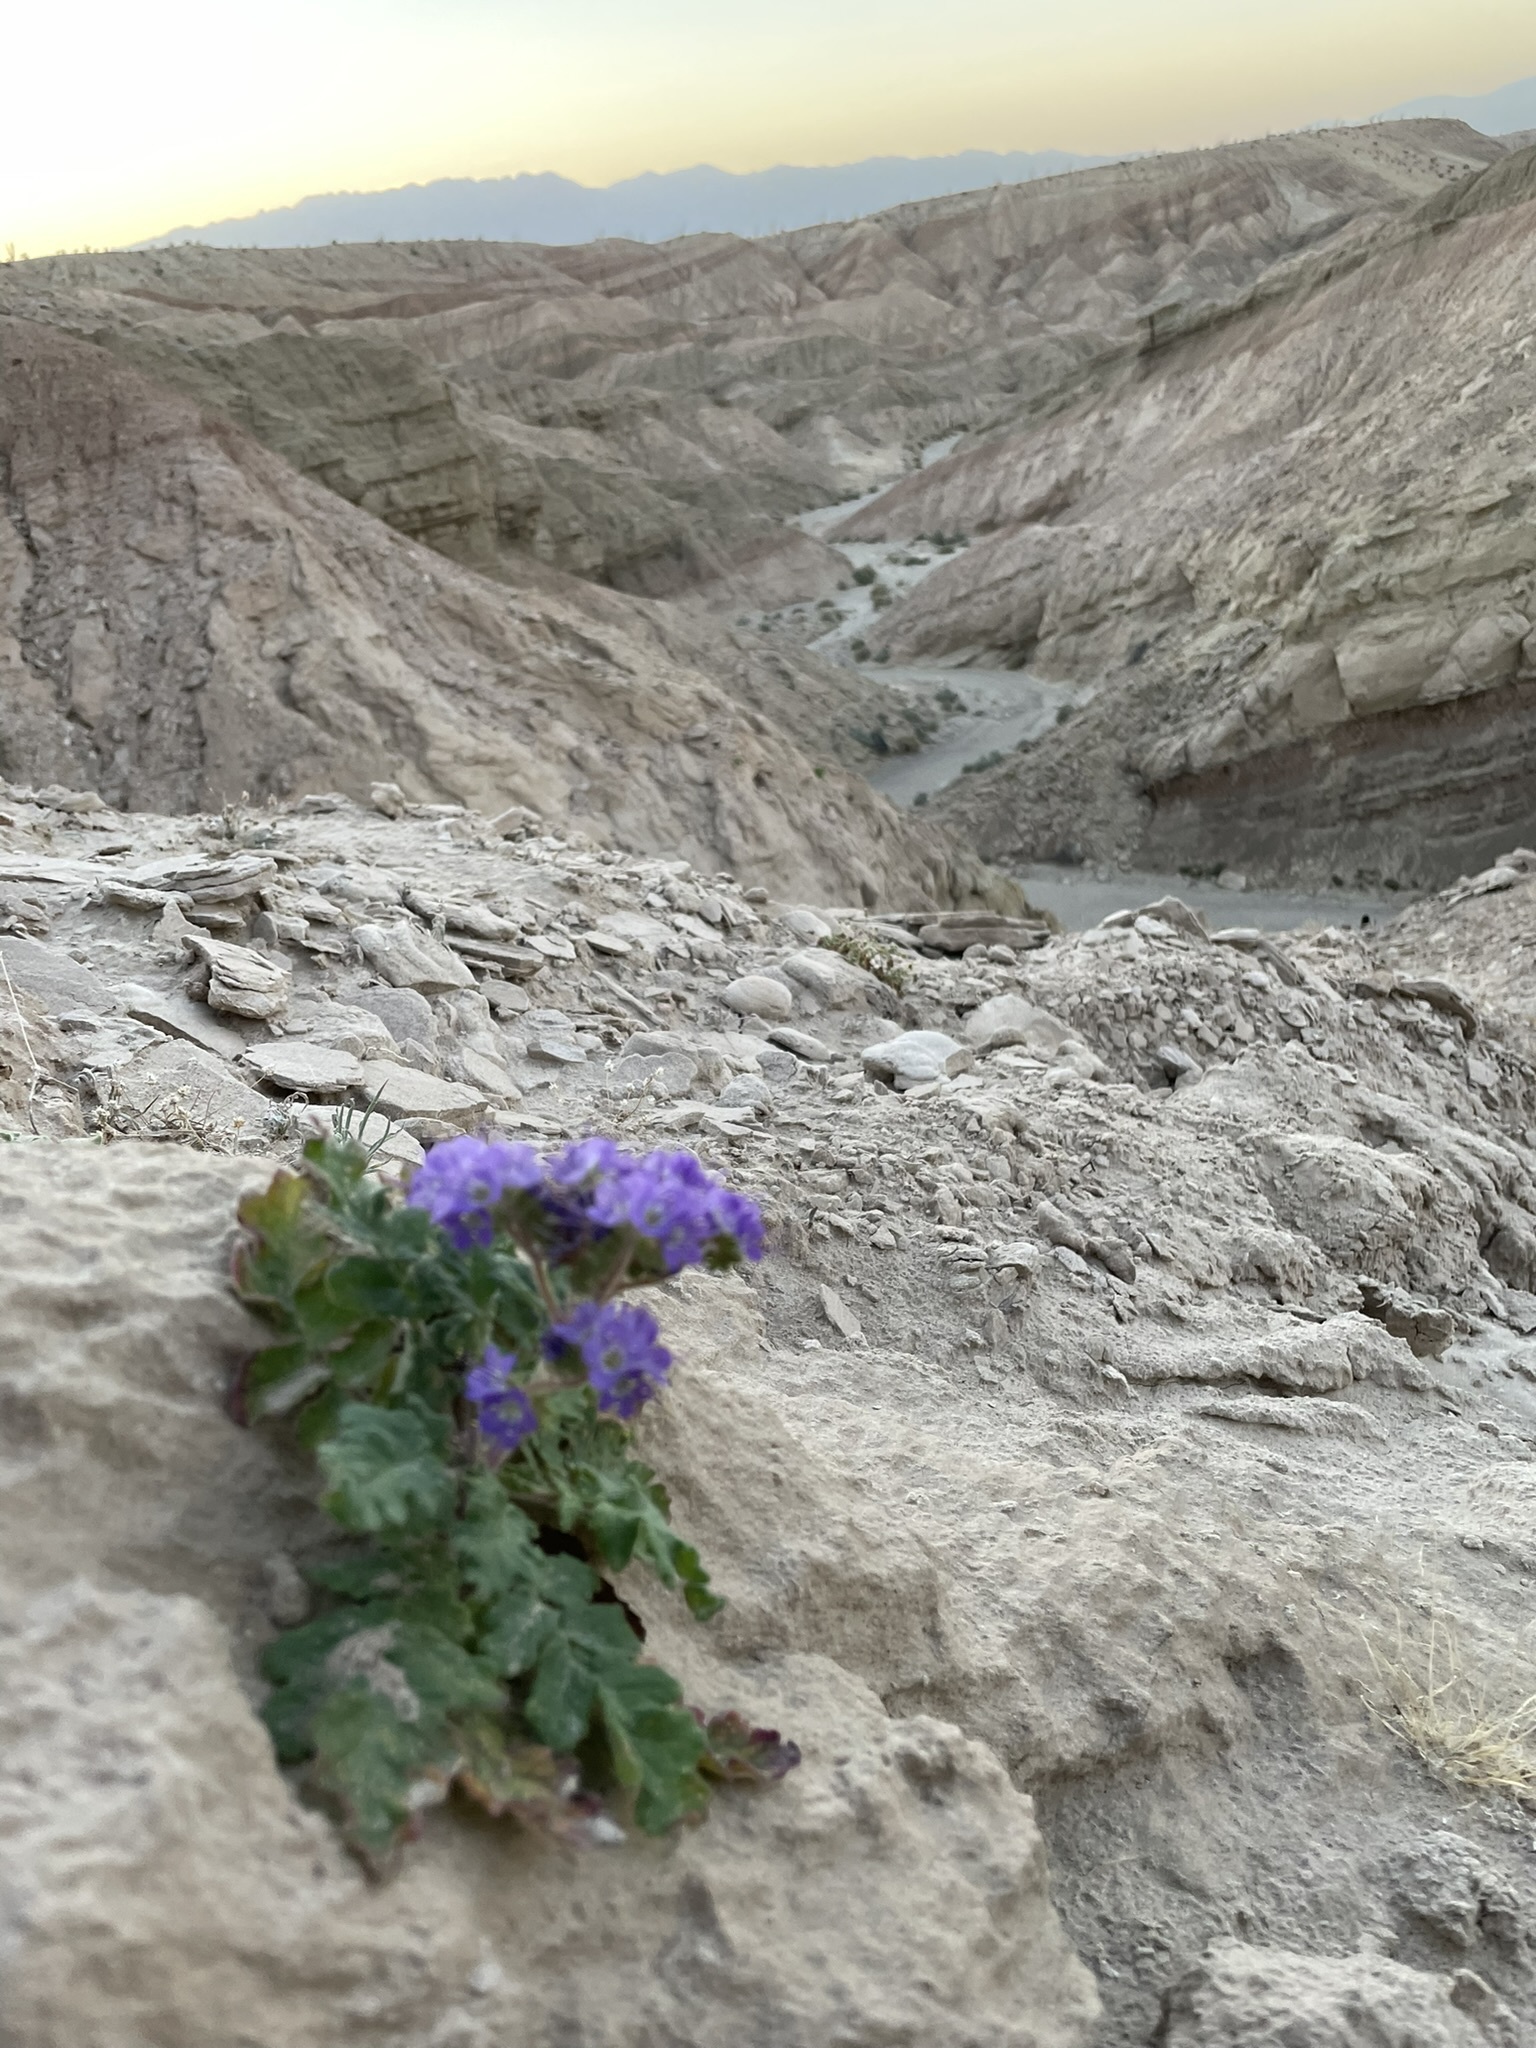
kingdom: Plantae
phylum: Tracheophyta
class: Magnoliopsida
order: Boraginales
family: Hydrophyllaceae
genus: Phacelia
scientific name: Phacelia crenulata
